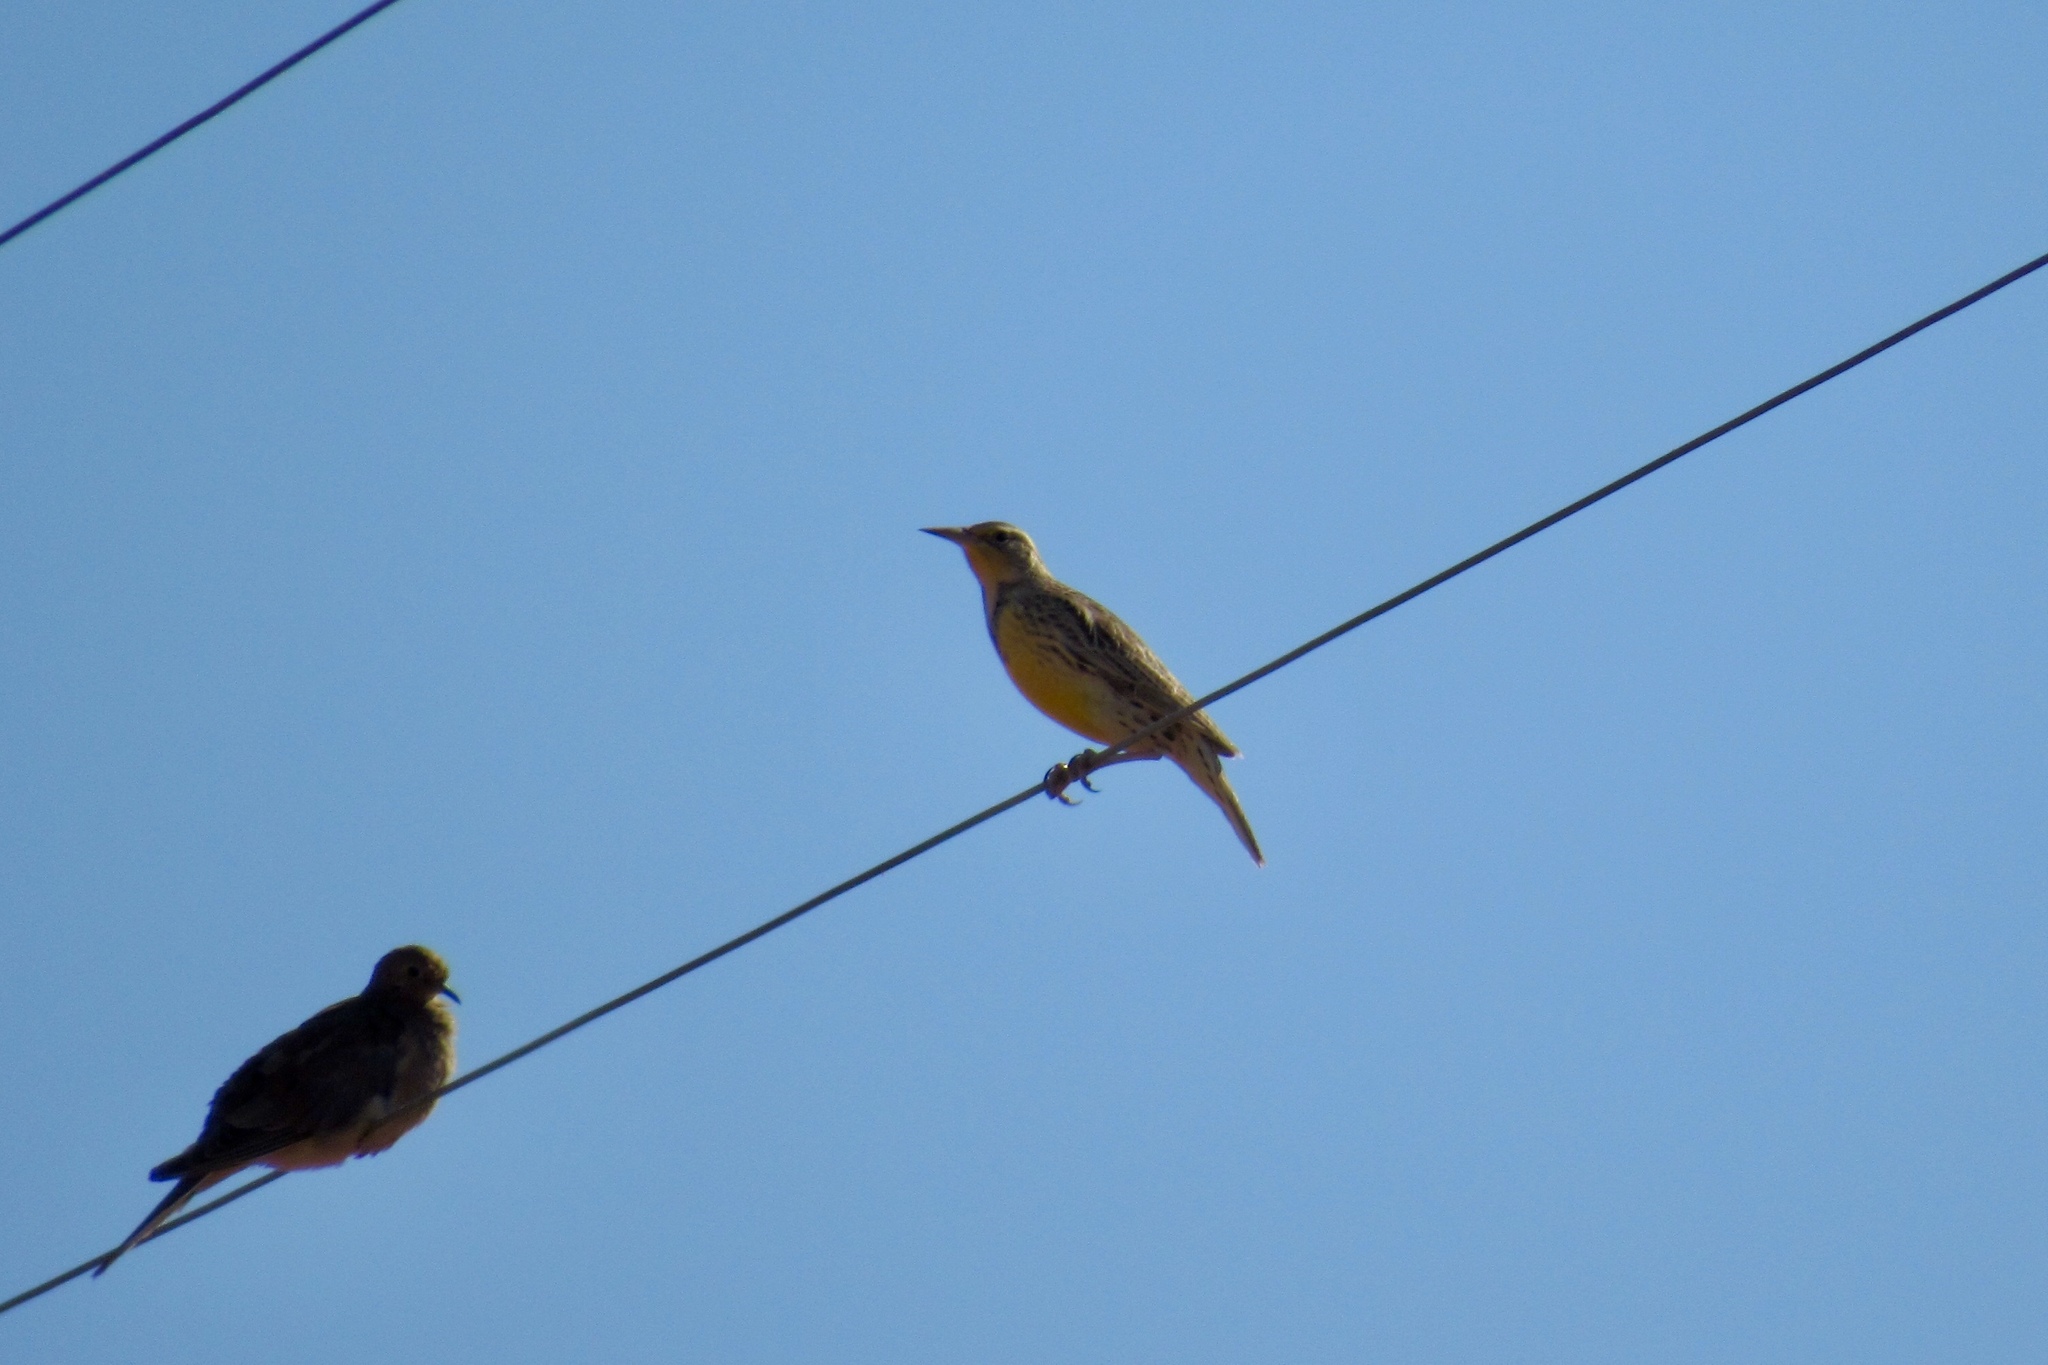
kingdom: Animalia
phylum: Chordata
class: Aves
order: Passeriformes
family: Icteridae
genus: Sturnella
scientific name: Sturnella neglecta
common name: Western meadowlark
